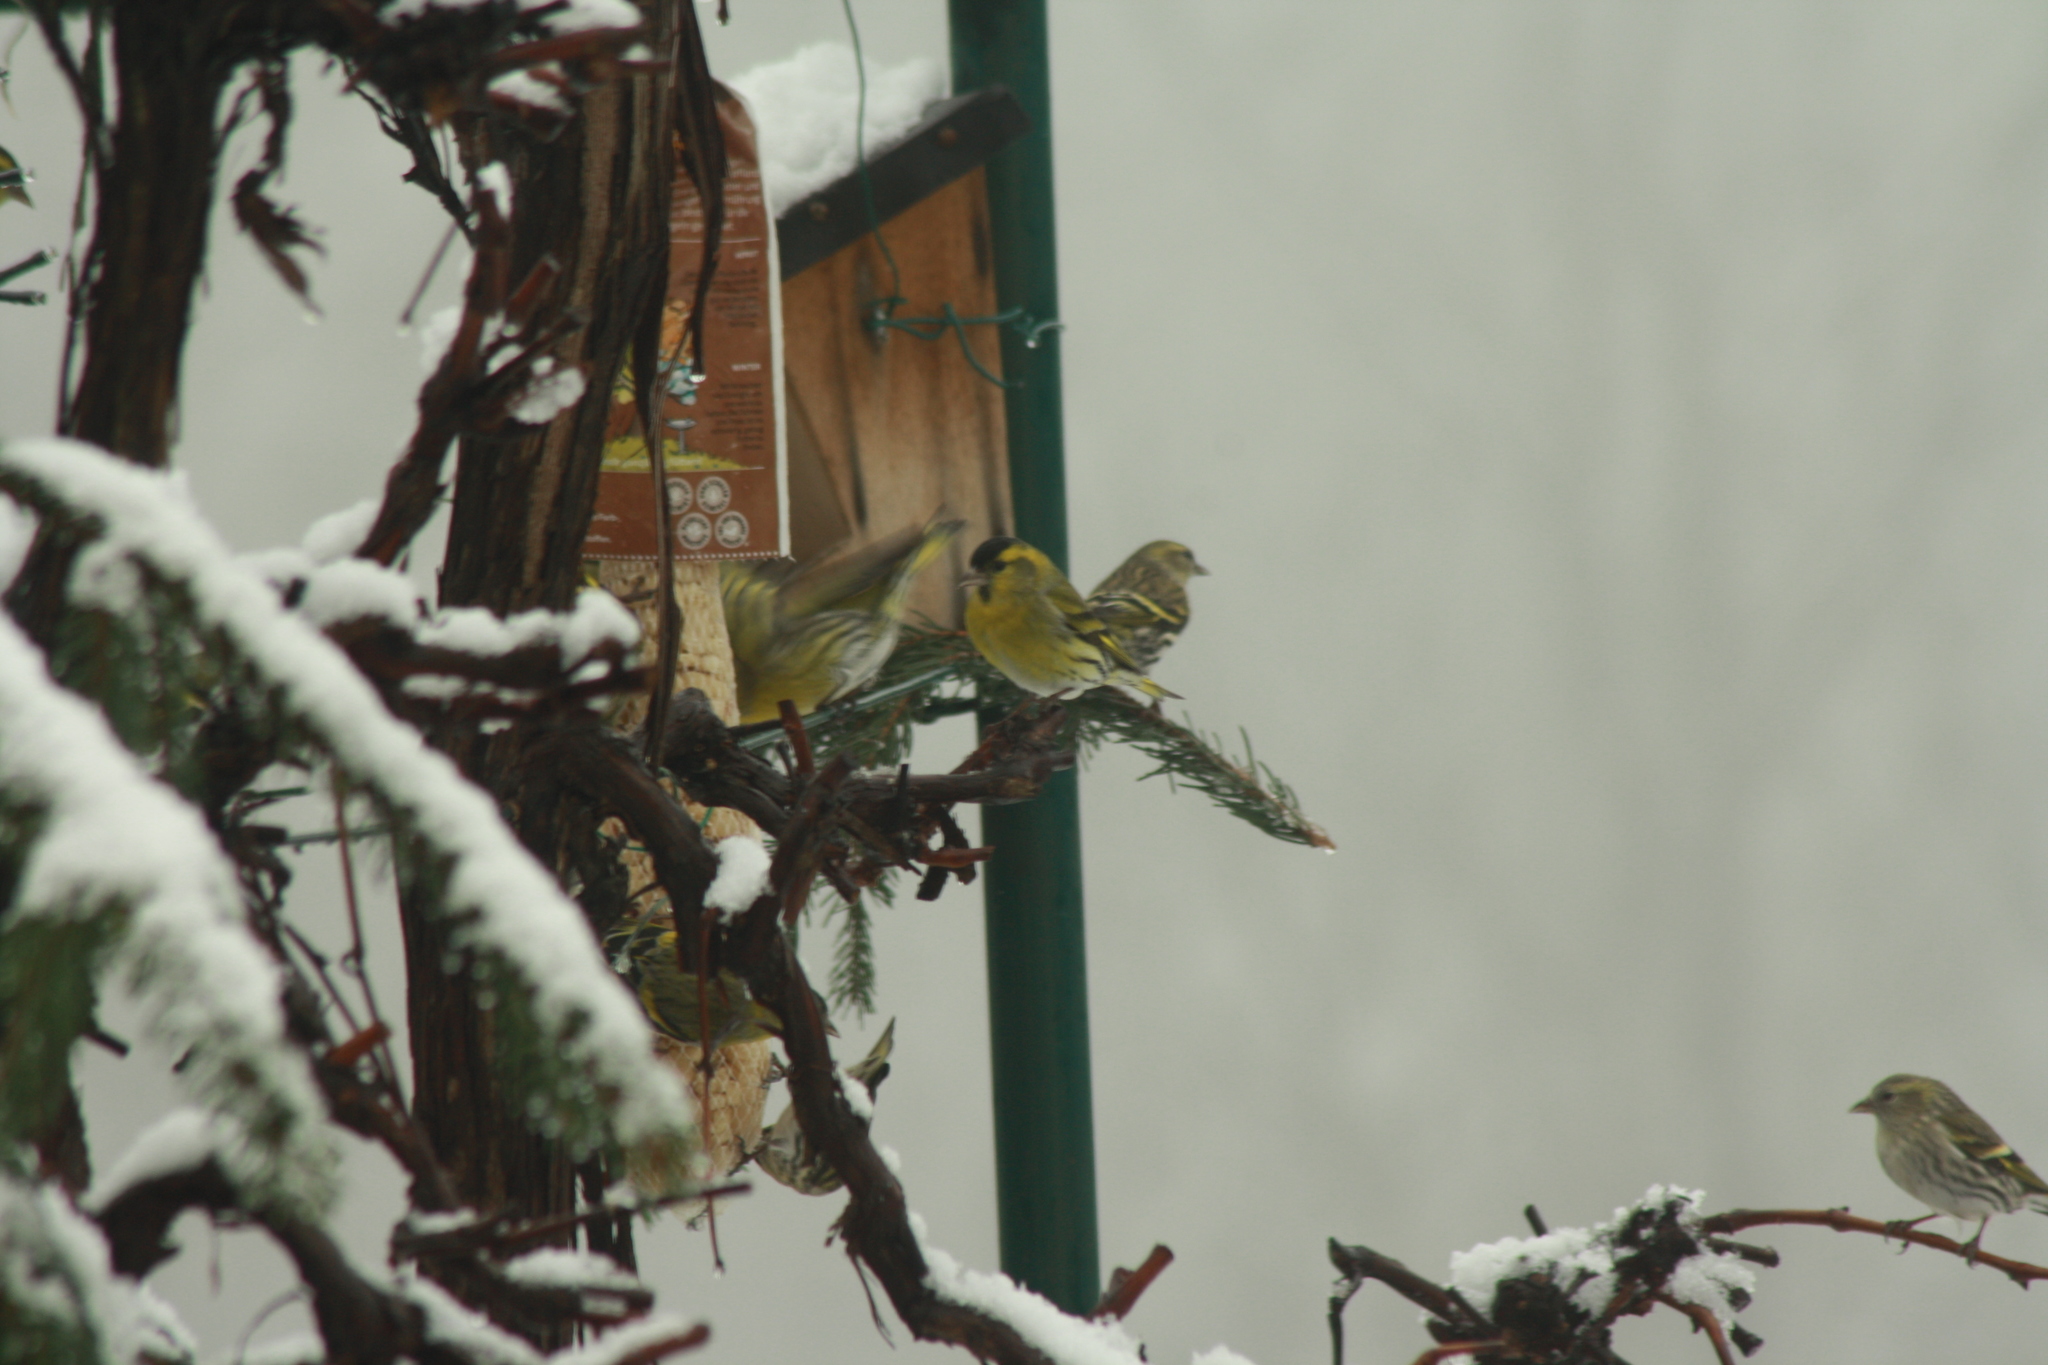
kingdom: Animalia
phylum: Chordata
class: Aves
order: Passeriformes
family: Fringillidae
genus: Spinus
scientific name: Spinus spinus
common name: Eurasian siskin
